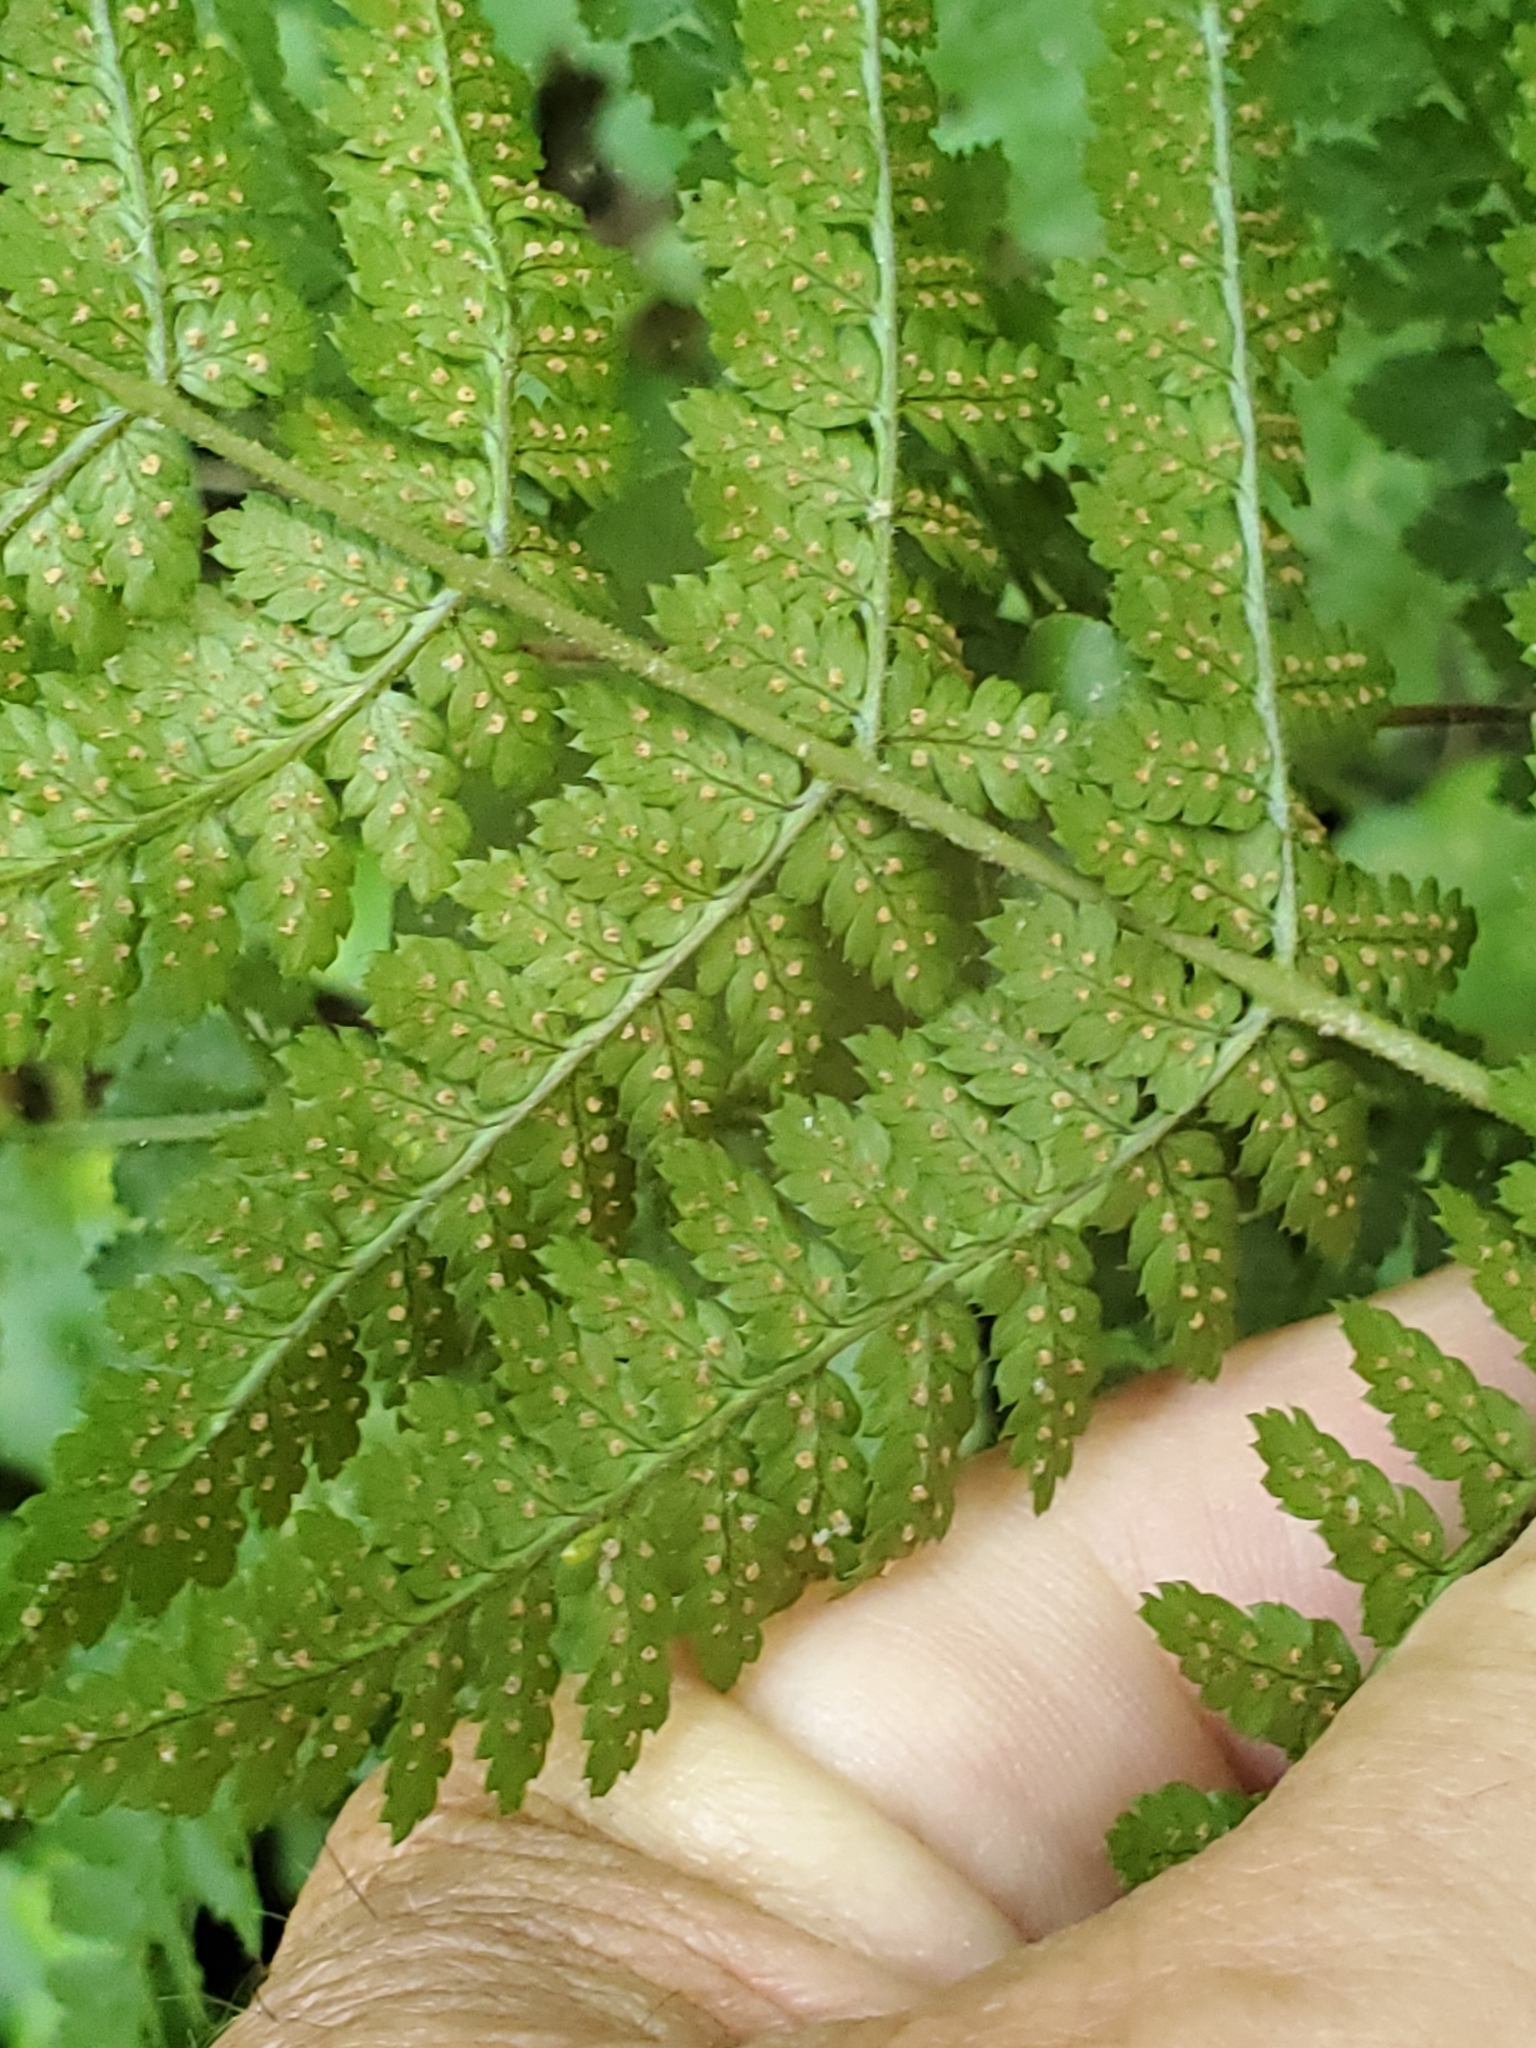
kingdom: Plantae
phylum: Tracheophyta
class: Polypodiopsida
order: Polypodiales
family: Dryopteridaceae
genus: Dryopteris
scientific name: Dryopteris intermedia
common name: Evergreen wood fern
